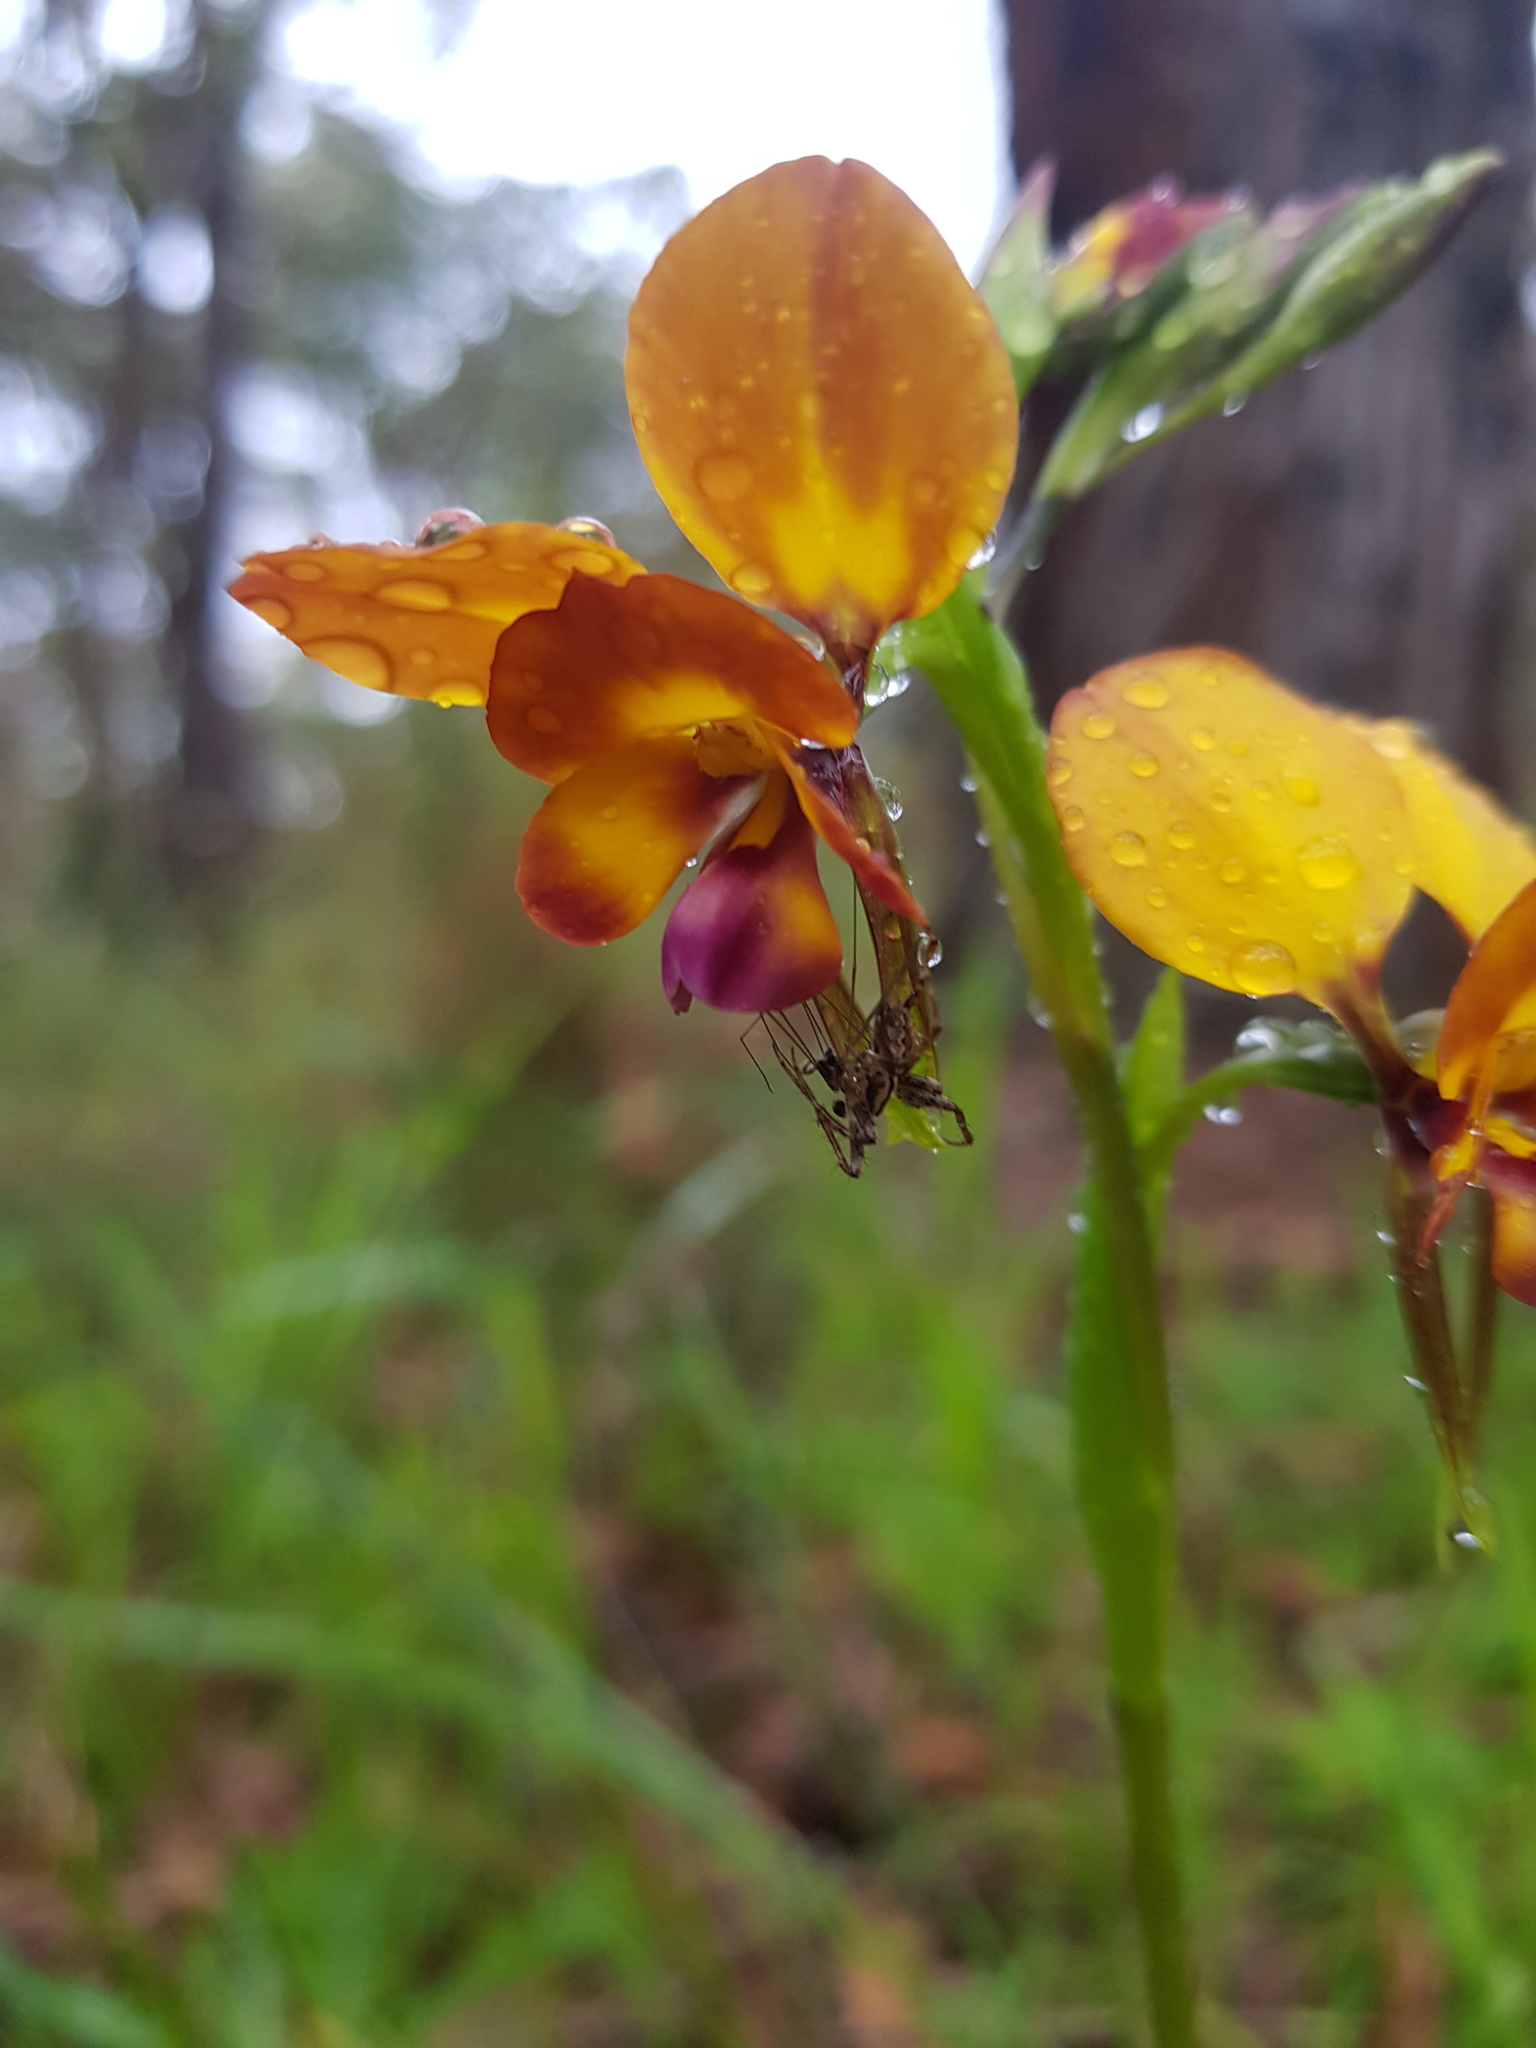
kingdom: Plantae
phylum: Tracheophyta
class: Liliopsida
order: Asparagales
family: Orchidaceae
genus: Diuris
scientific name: Diuris magnifica
